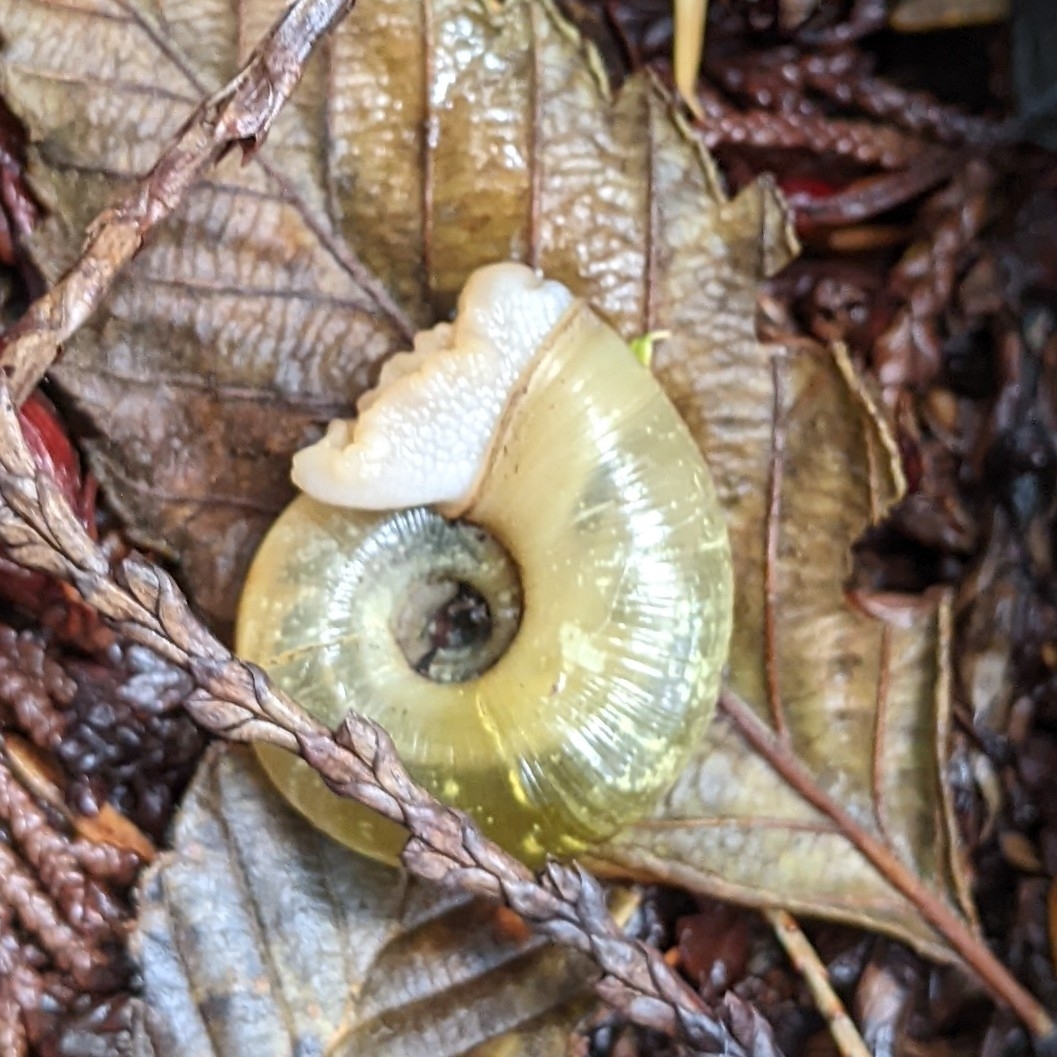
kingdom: Animalia
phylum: Mollusca
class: Gastropoda
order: Stylommatophora
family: Haplotrematidae
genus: Haplotrema
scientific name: Haplotrema vancouverense
